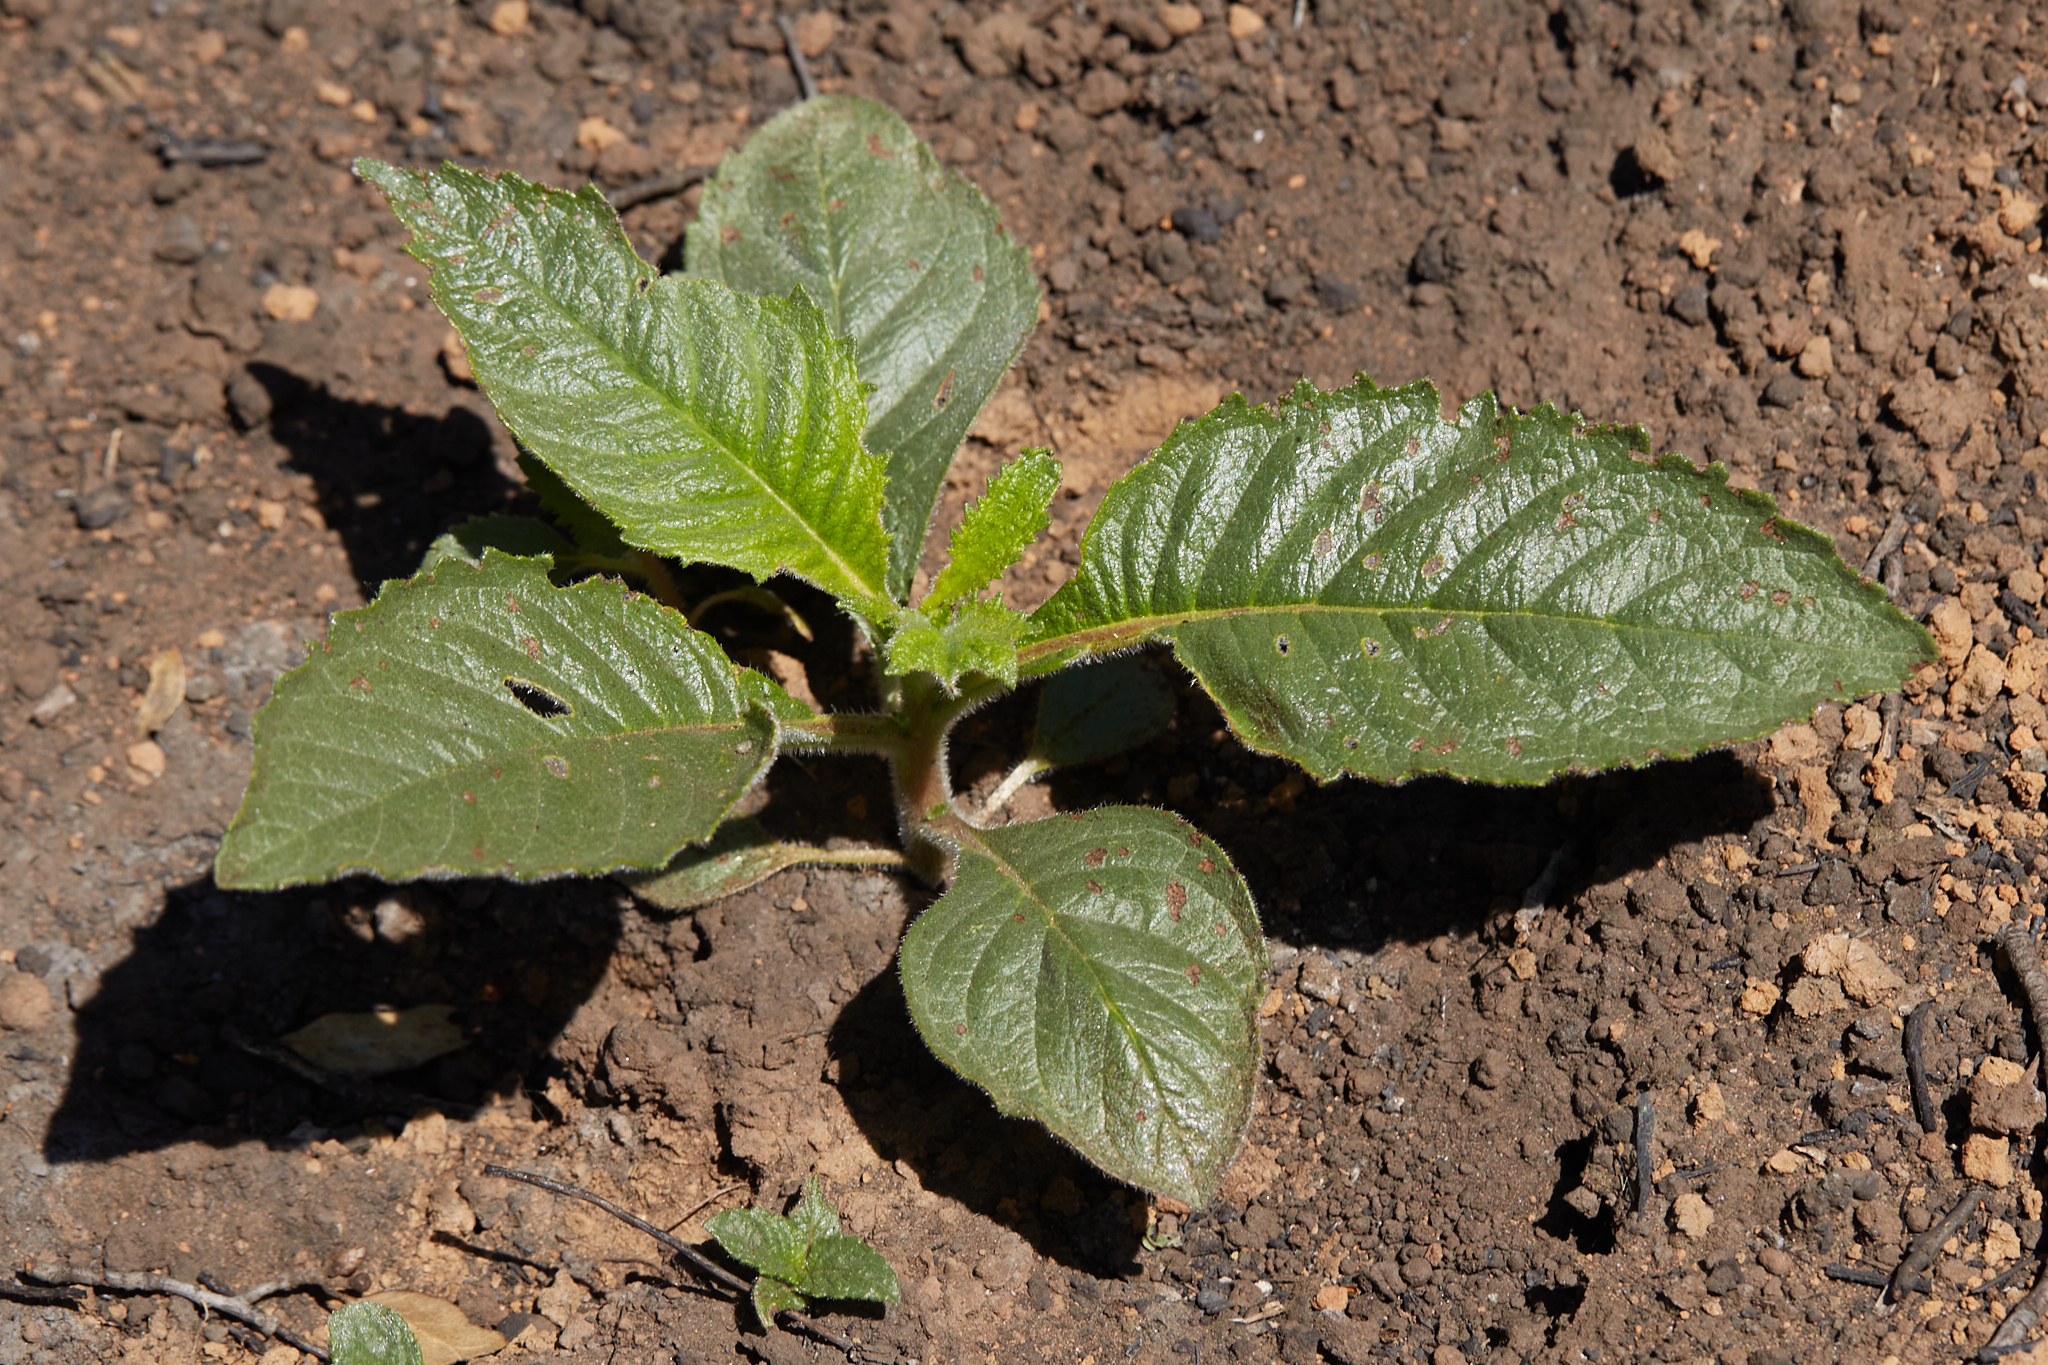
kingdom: Plantae
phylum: Tracheophyta
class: Magnoliopsida
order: Boraginales
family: Namaceae
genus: Eriodictyon
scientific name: Eriodictyon californicum
